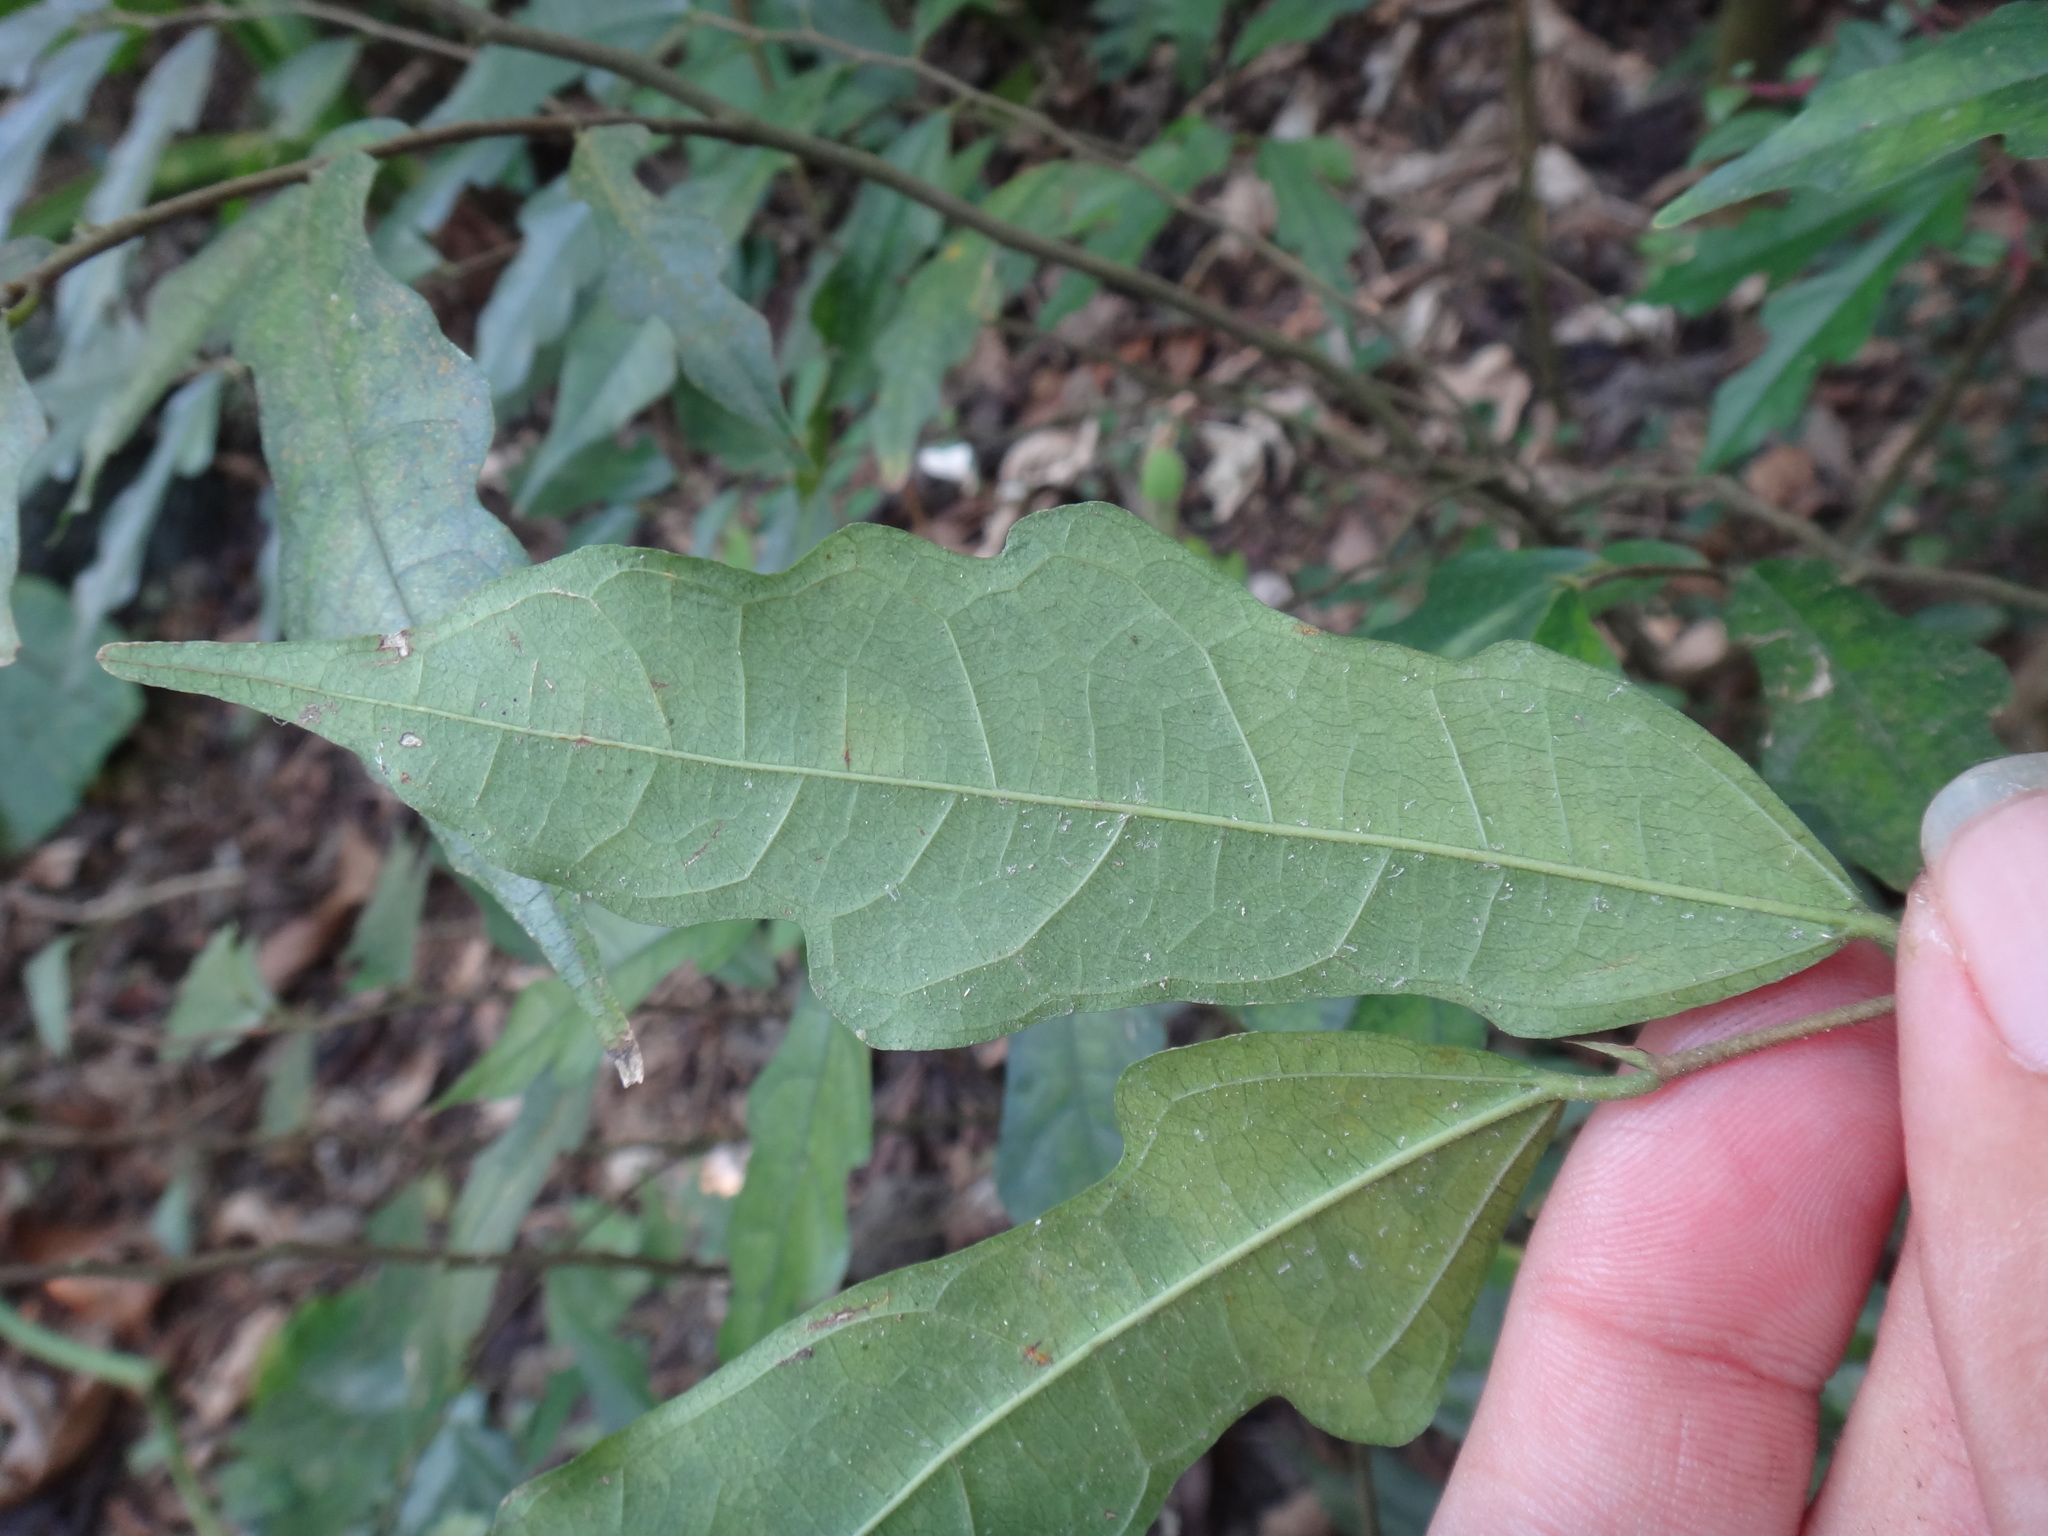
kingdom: Plantae
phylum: Tracheophyta
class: Magnoliopsida
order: Rosales
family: Moraceae
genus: Ficus
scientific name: Ficus ampelos
